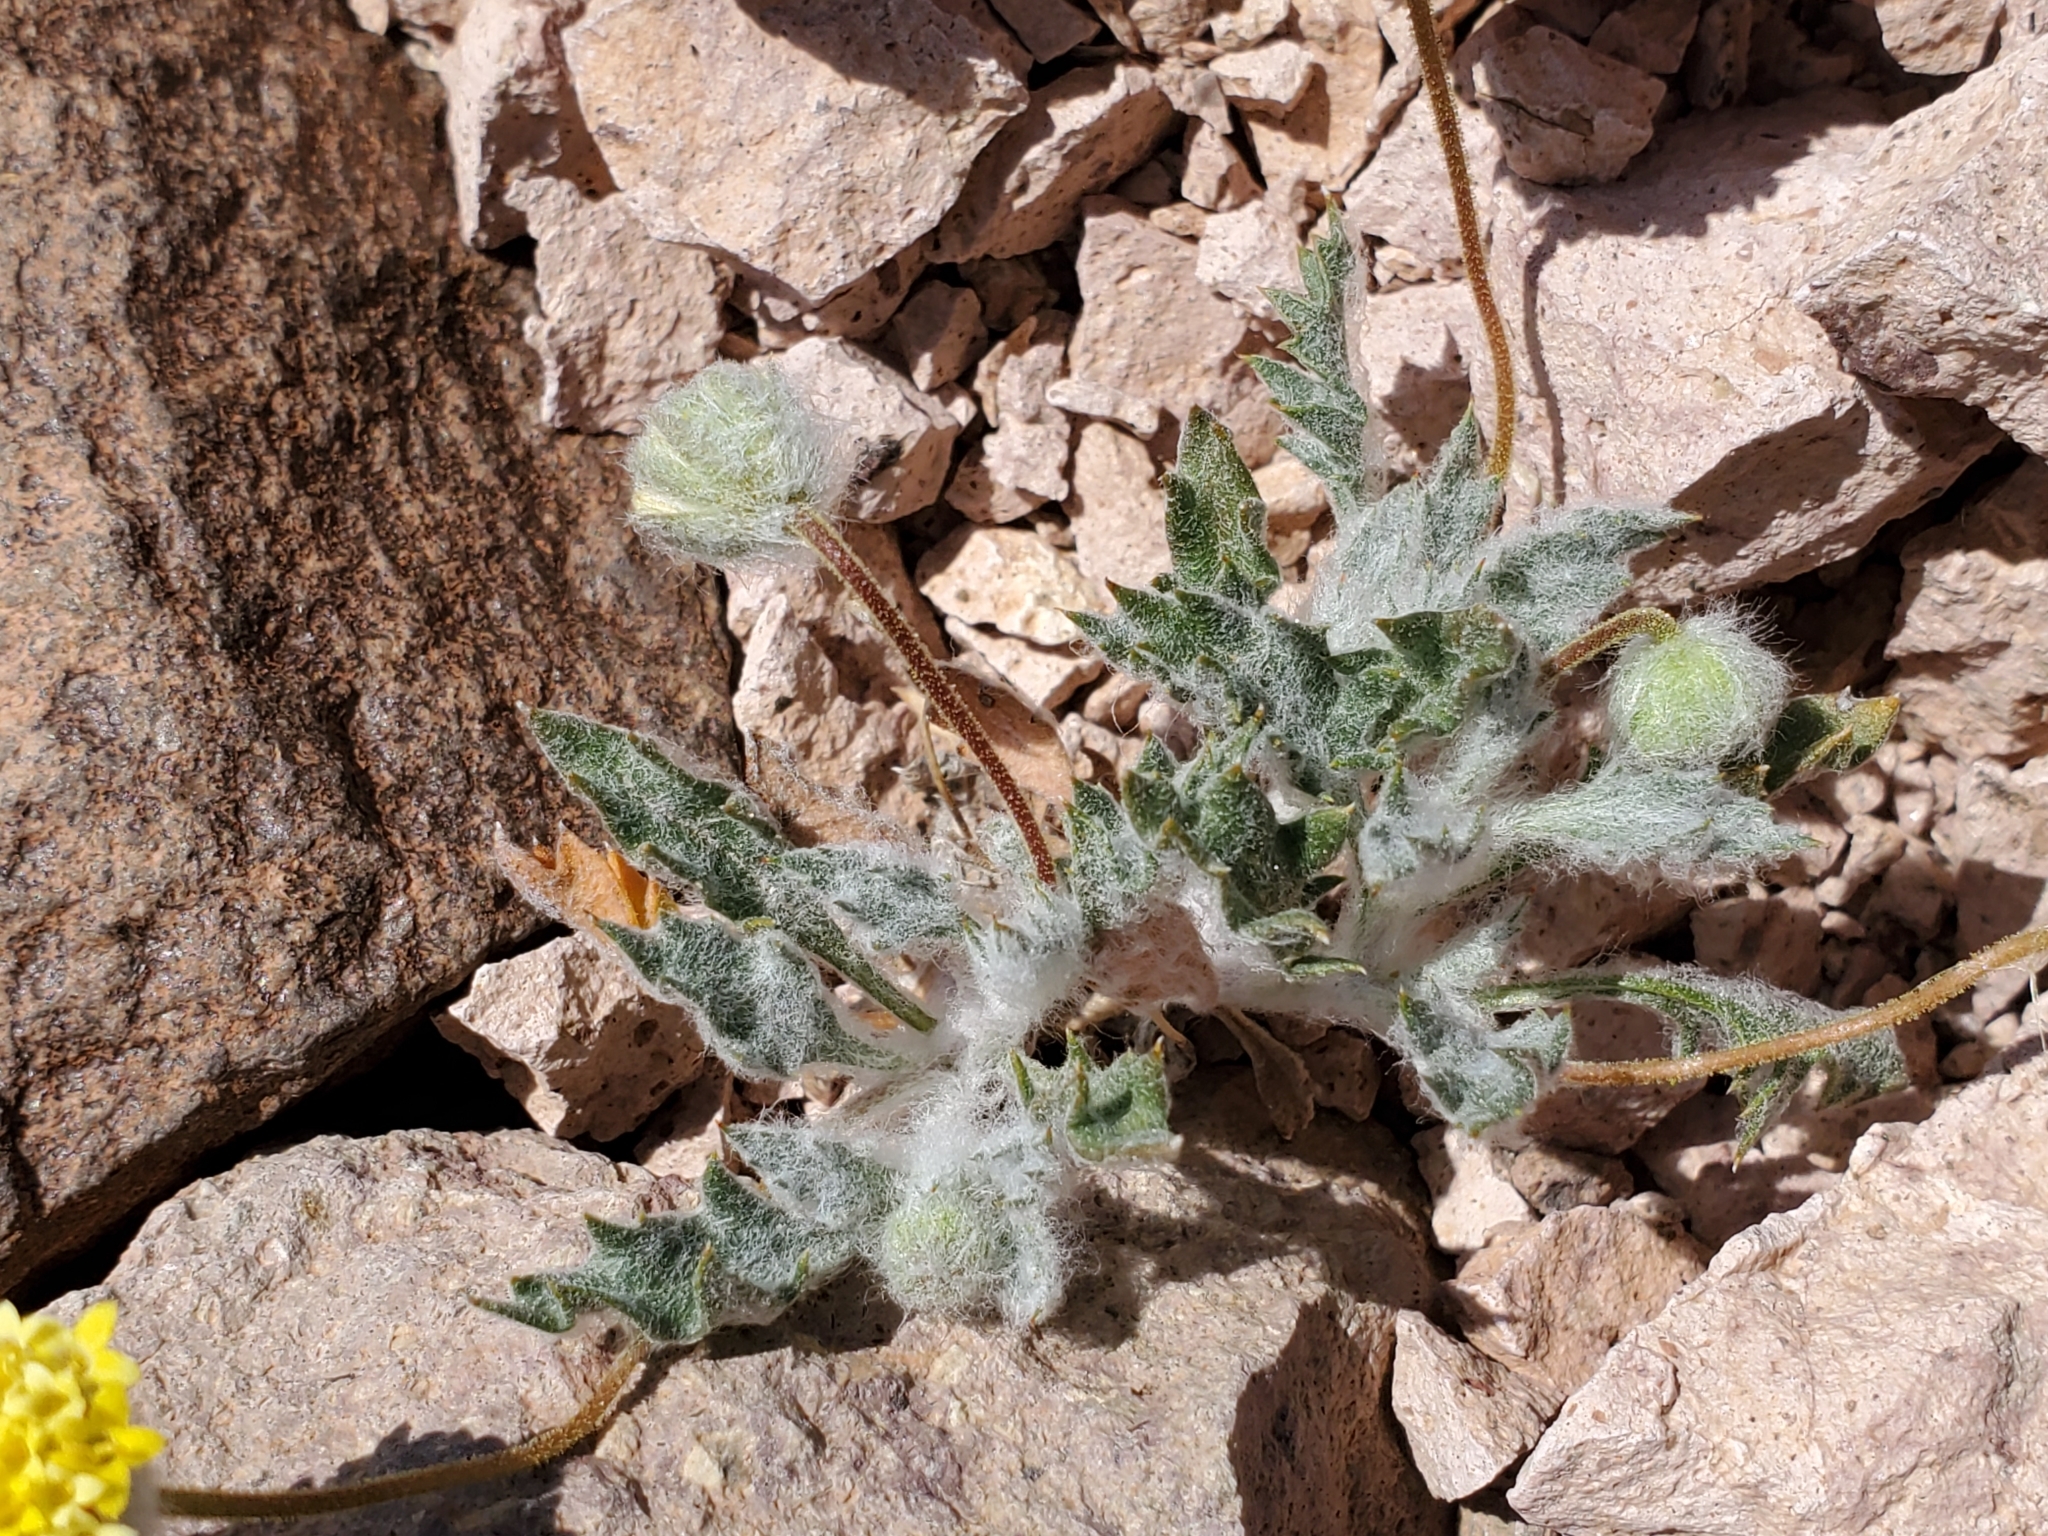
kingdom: Plantae
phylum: Tracheophyta
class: Magnoliopsida
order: Asterales
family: Asteraceae
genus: Trichoptilium
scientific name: Trichoptilium incisum
